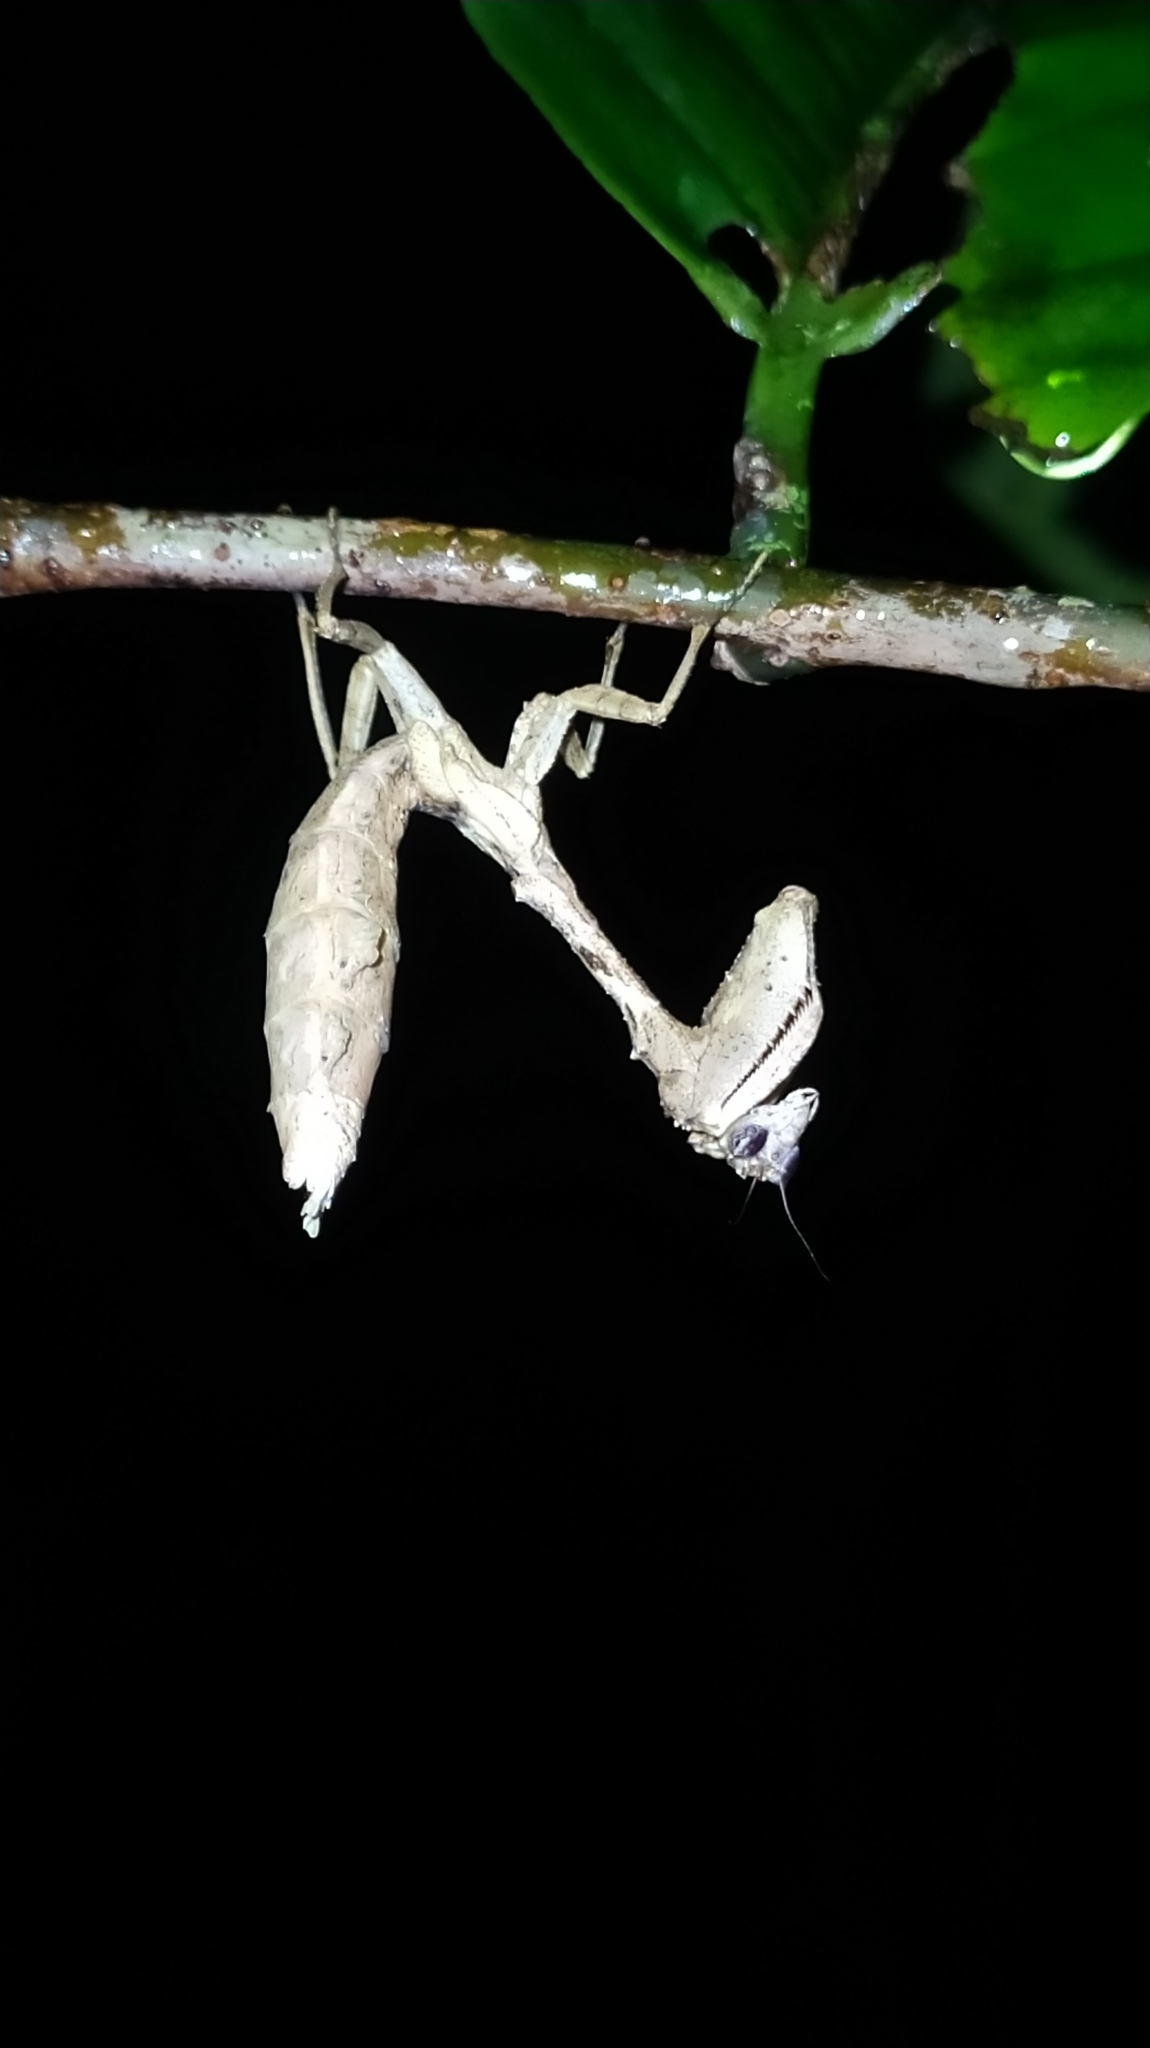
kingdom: Animalia
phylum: Arthropoda
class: Insecta
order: Mantodea
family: Acanthopidae
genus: Plesiacanthops
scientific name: Plesiacanthops tuberculata
